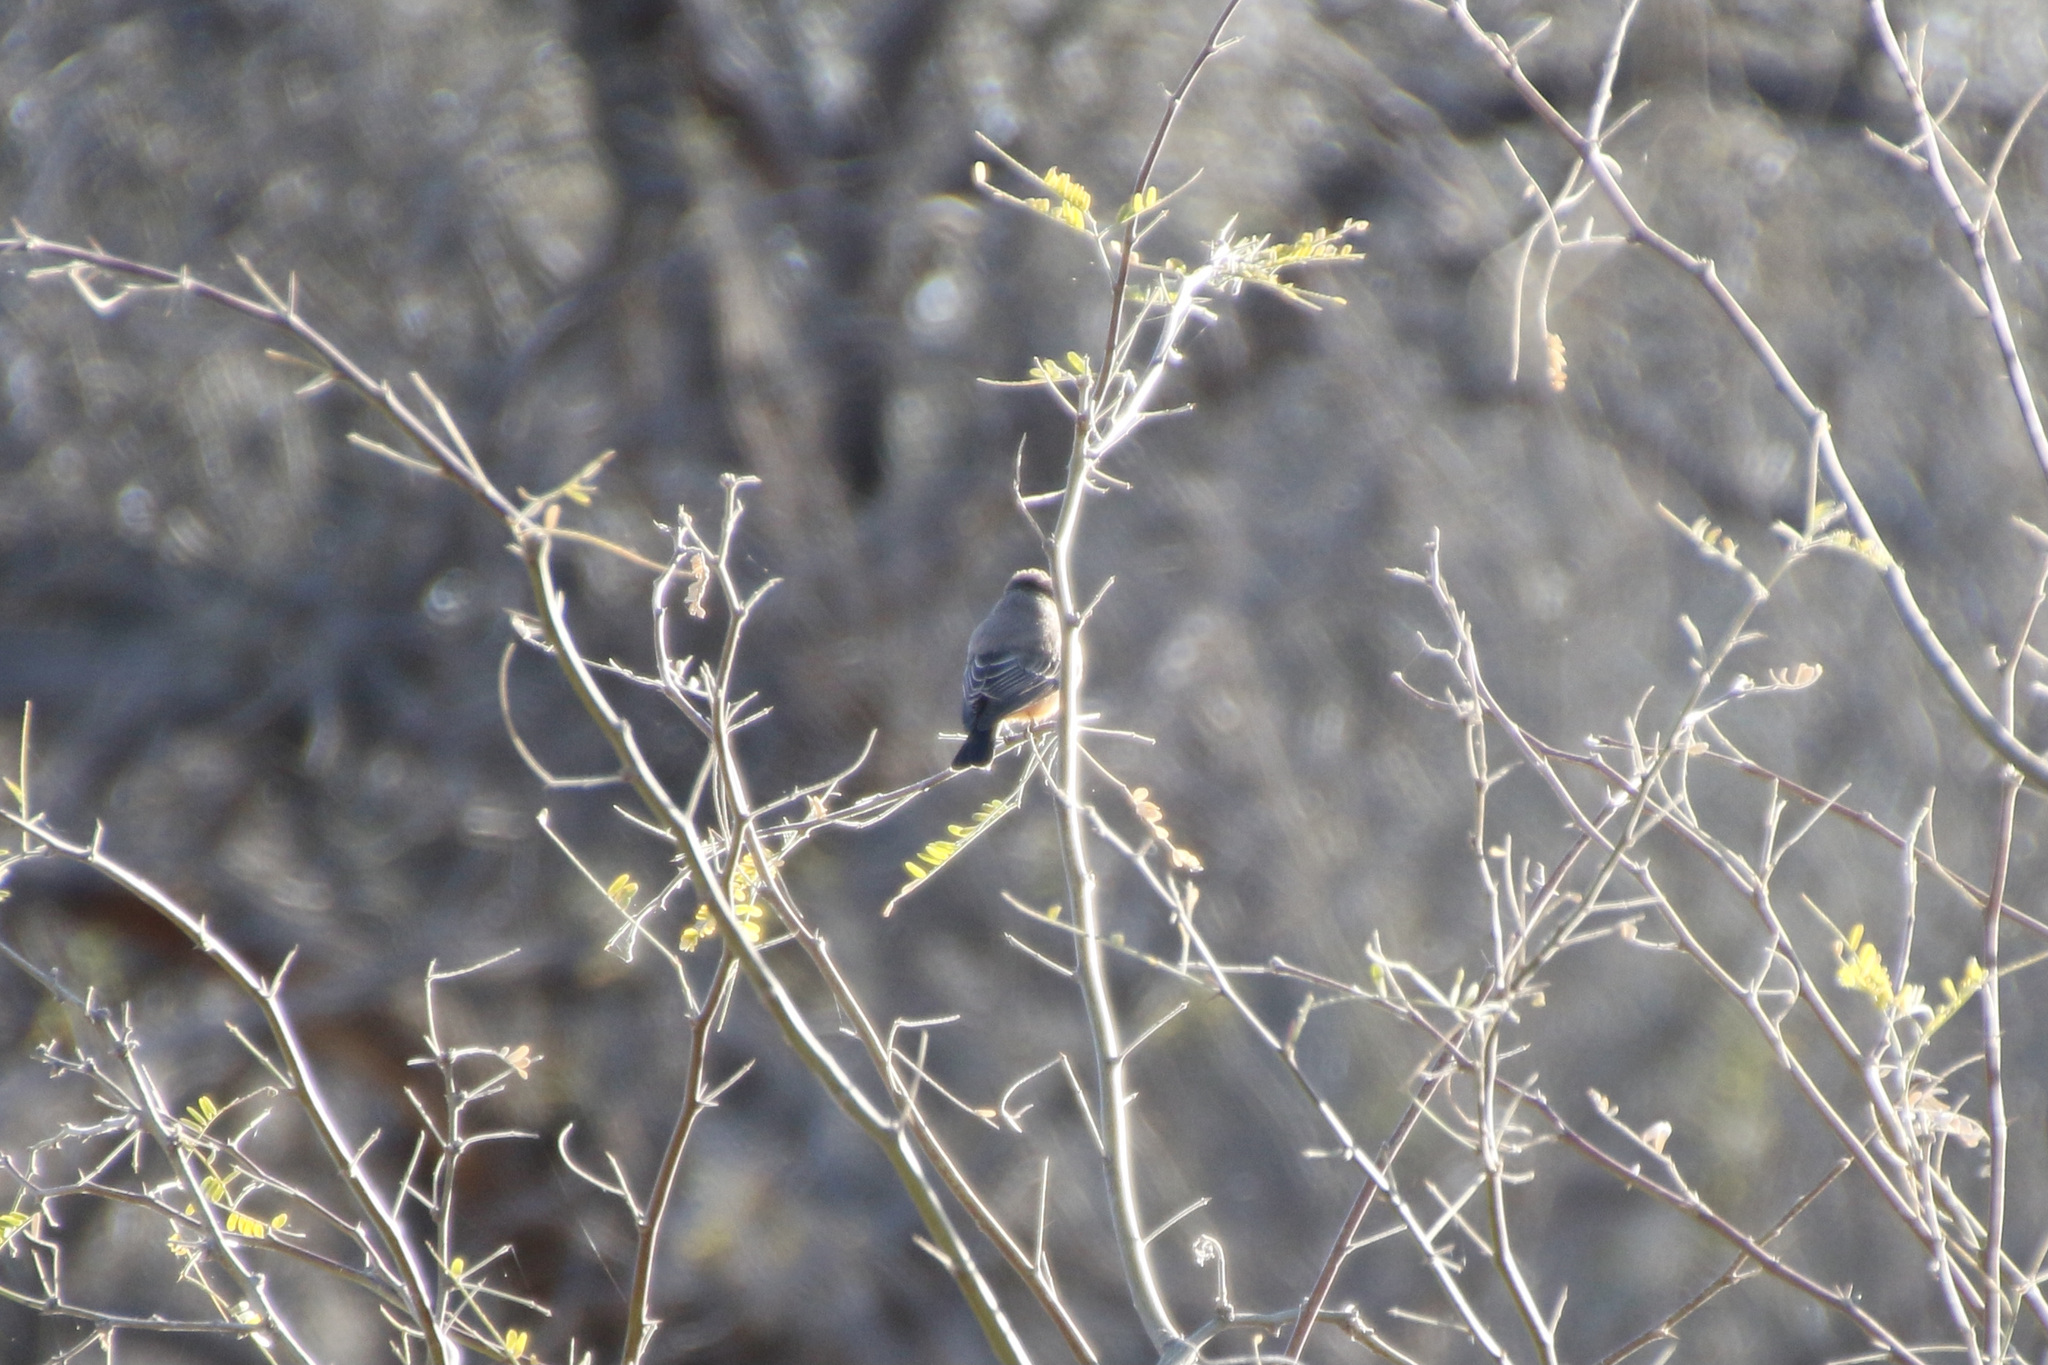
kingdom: Animalia
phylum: Chordata
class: Aves
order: Passeriformes
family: Tyrannidae
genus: Pyrocephalus
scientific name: Pyrocephalus rubinus
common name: Vermilion flycatcher
